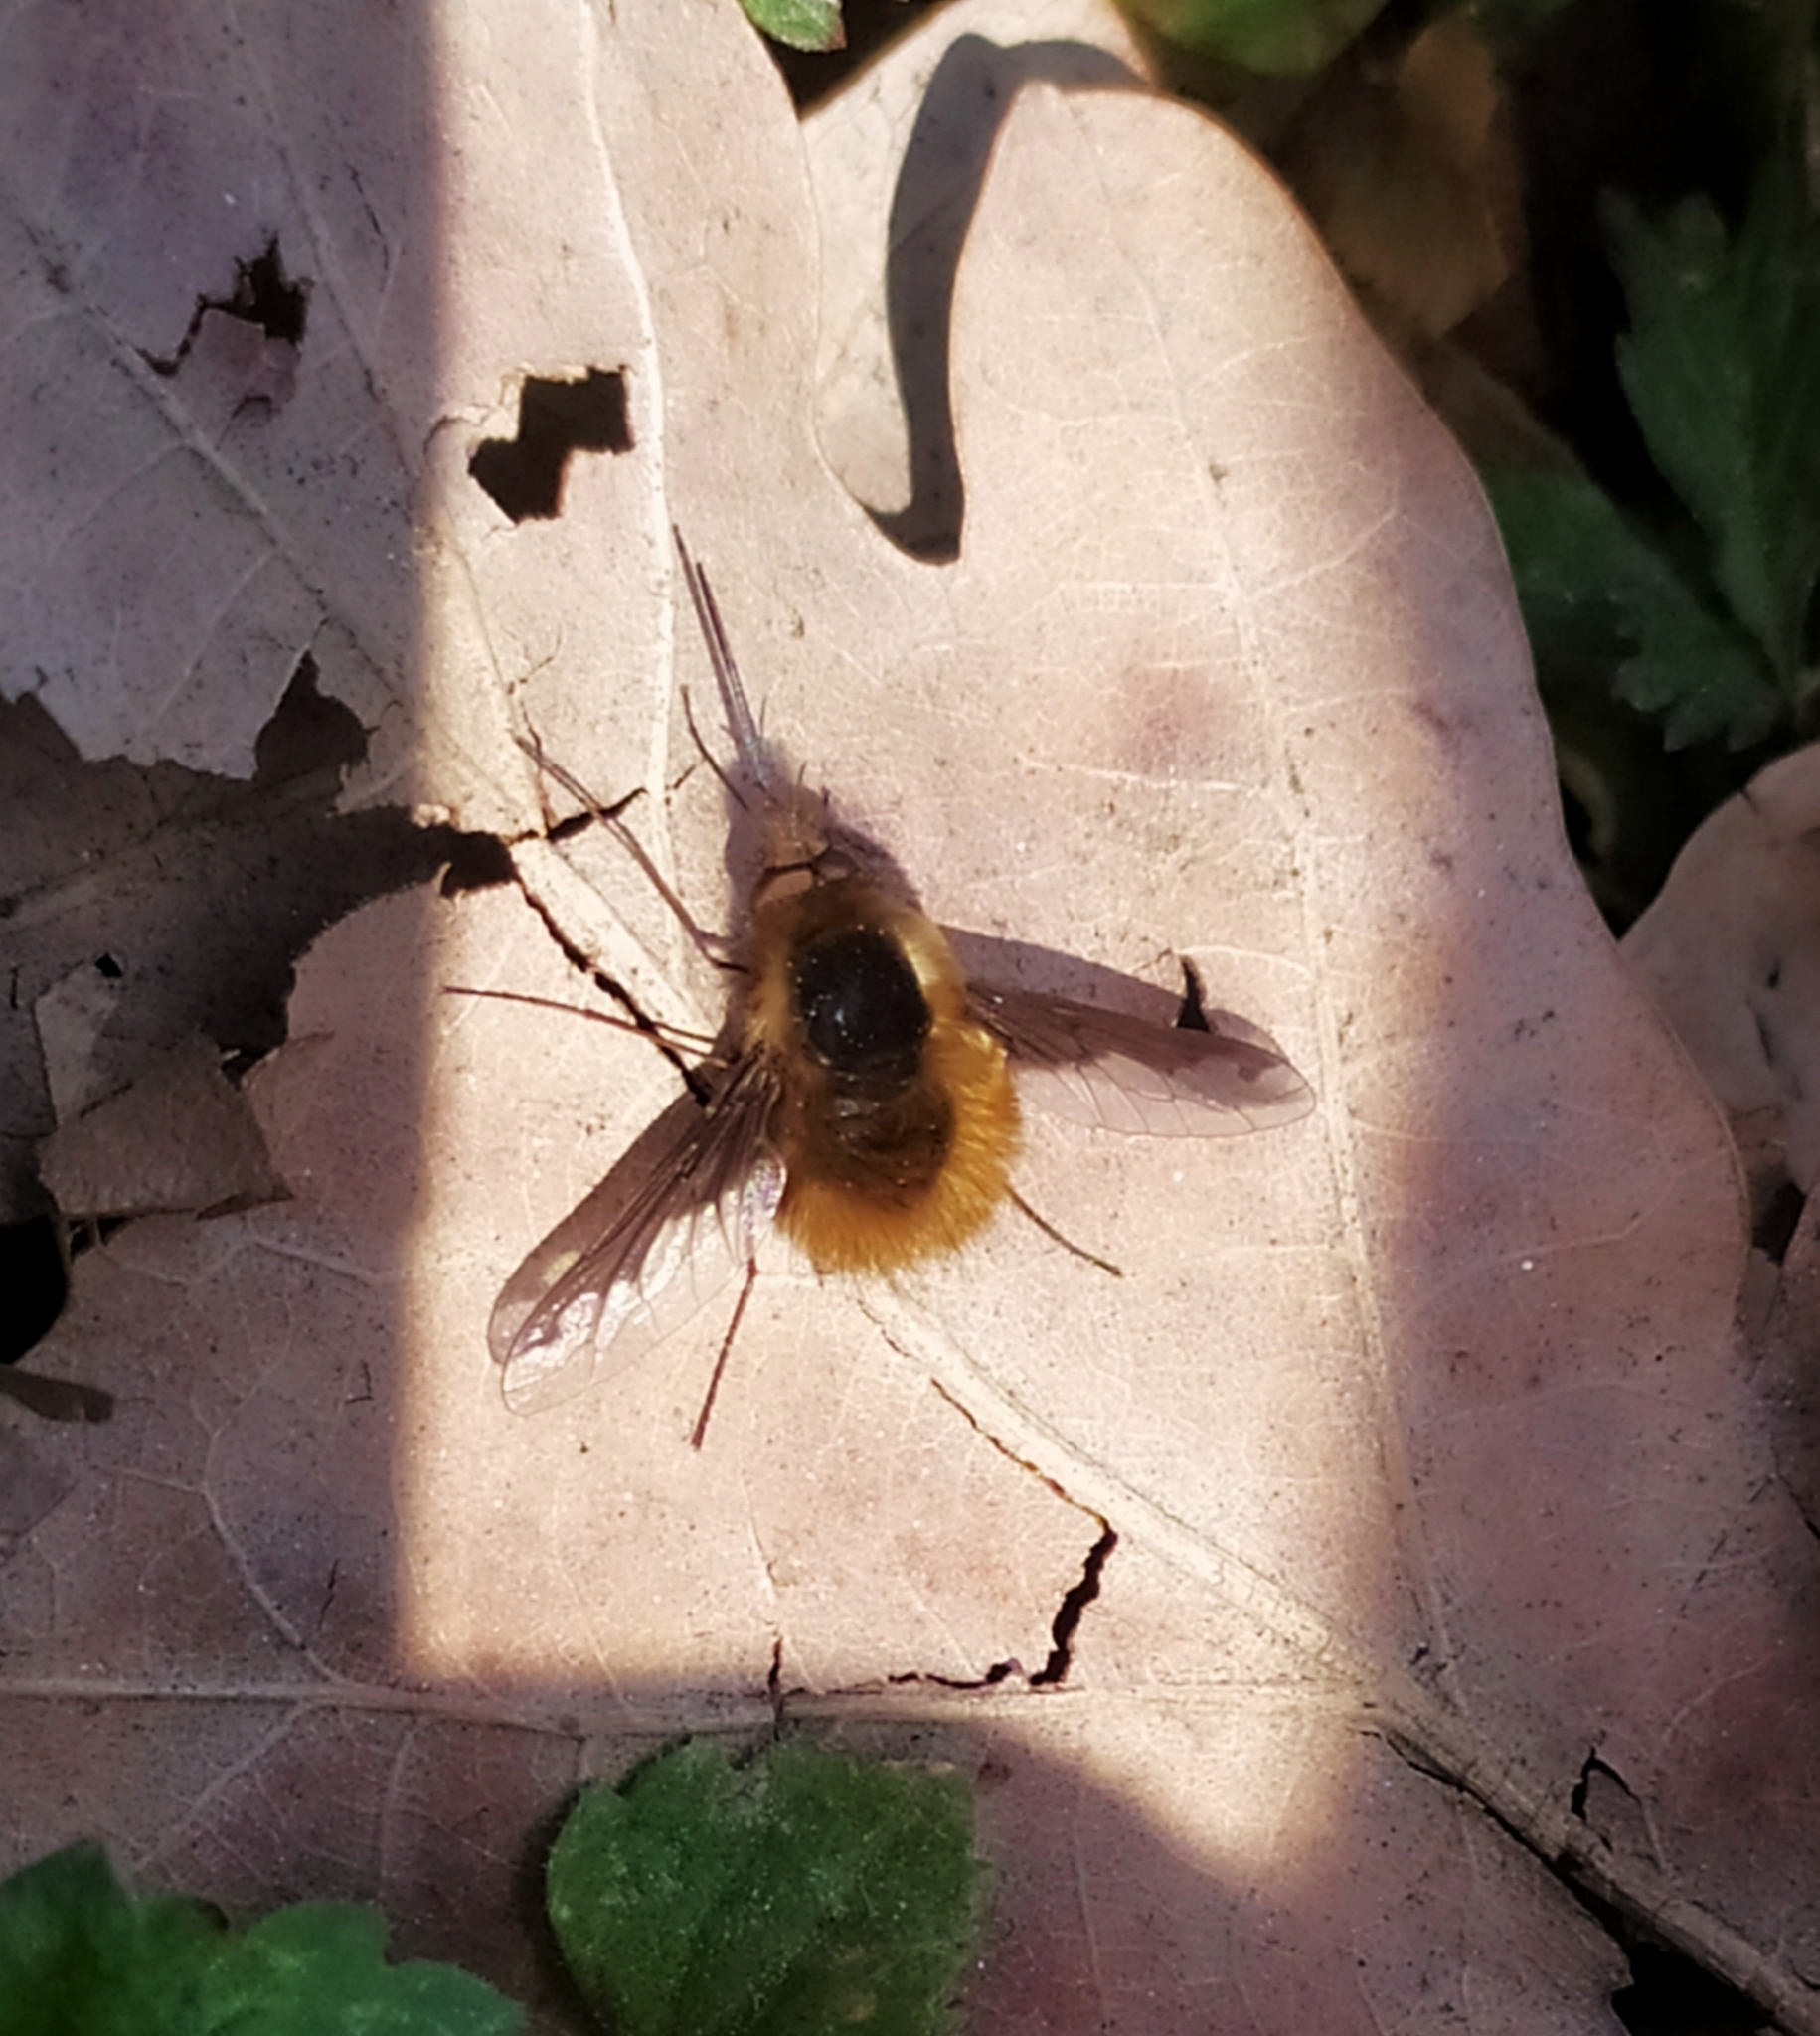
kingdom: Animalia
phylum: Arthropoda
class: Insecta
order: Diptera
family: Bombyliidae
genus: Bombylius
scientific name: Bombylius major
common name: Bee fly
